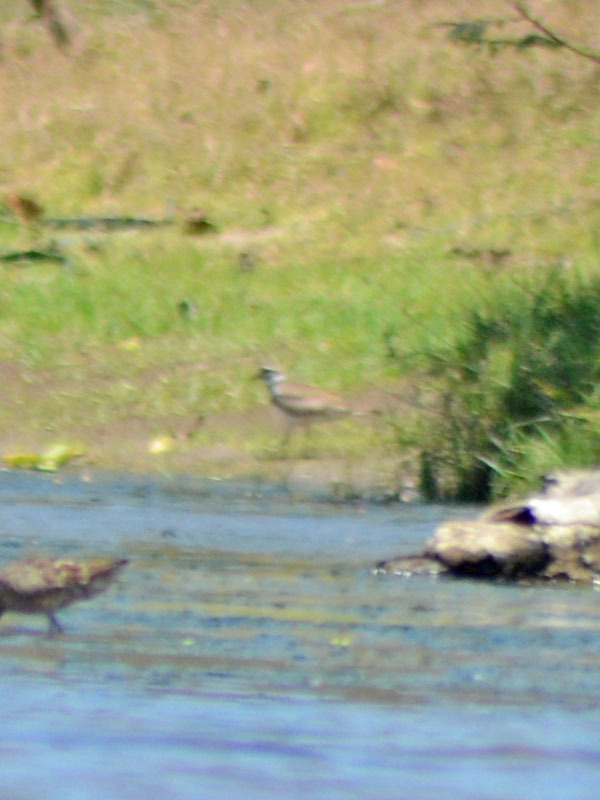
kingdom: Animalia
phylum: Chordata
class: Aves
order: Charadriiformes
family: Charadriidae
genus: Charadrius
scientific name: Charadrius vociferus
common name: Killdeer
